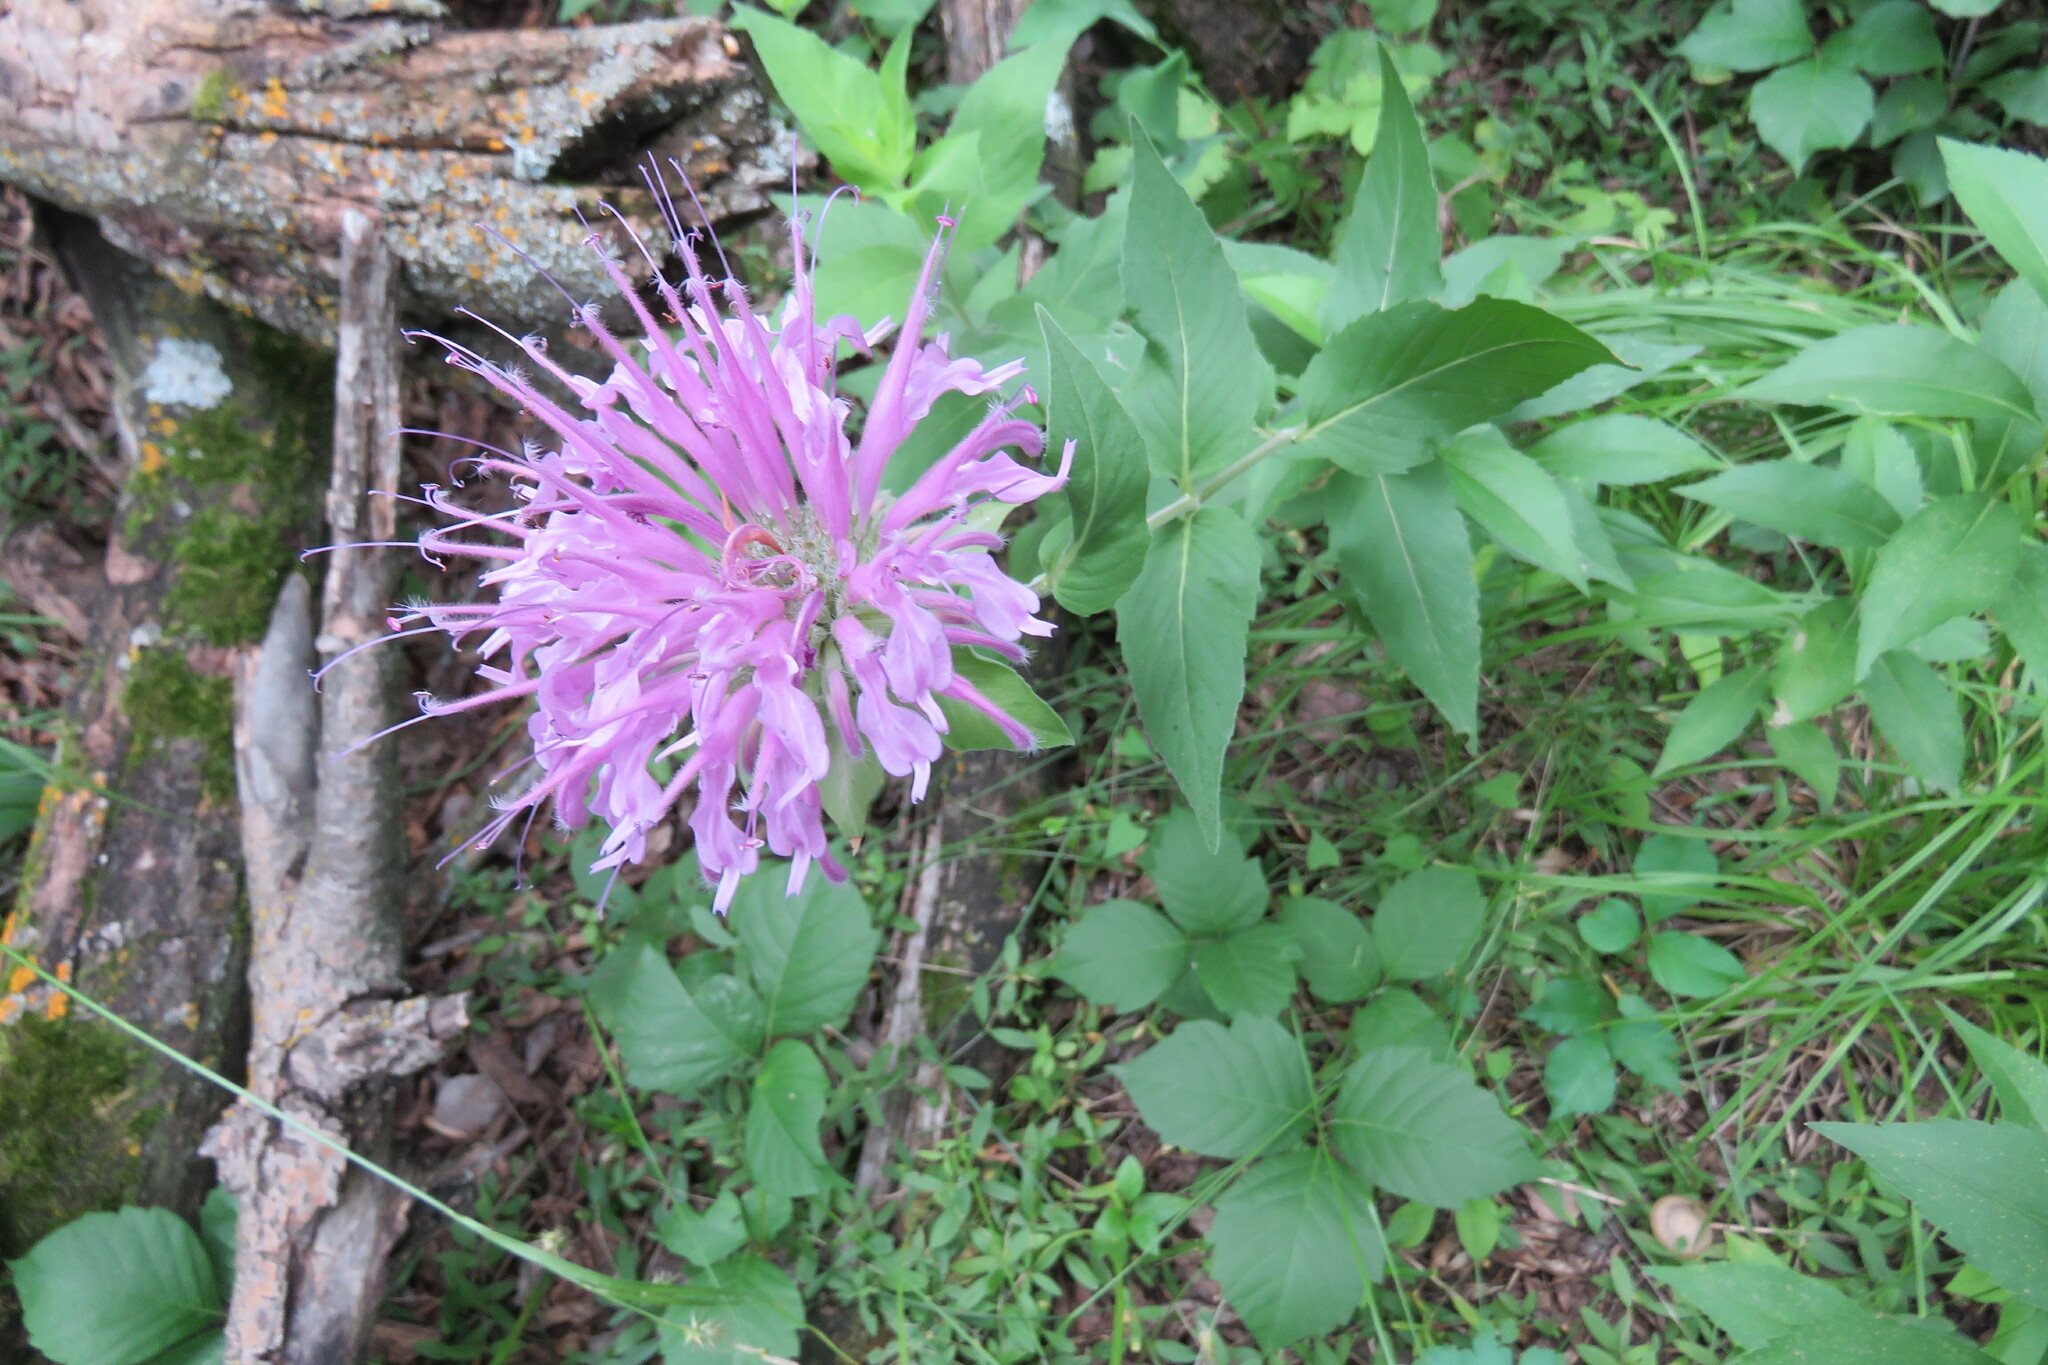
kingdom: Plantae
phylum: Tracheophyta
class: Magnoliopsida
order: Lamiales
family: Lamiaceae
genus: Monarda
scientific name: Monarda fistulosa
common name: Purple beebalm
